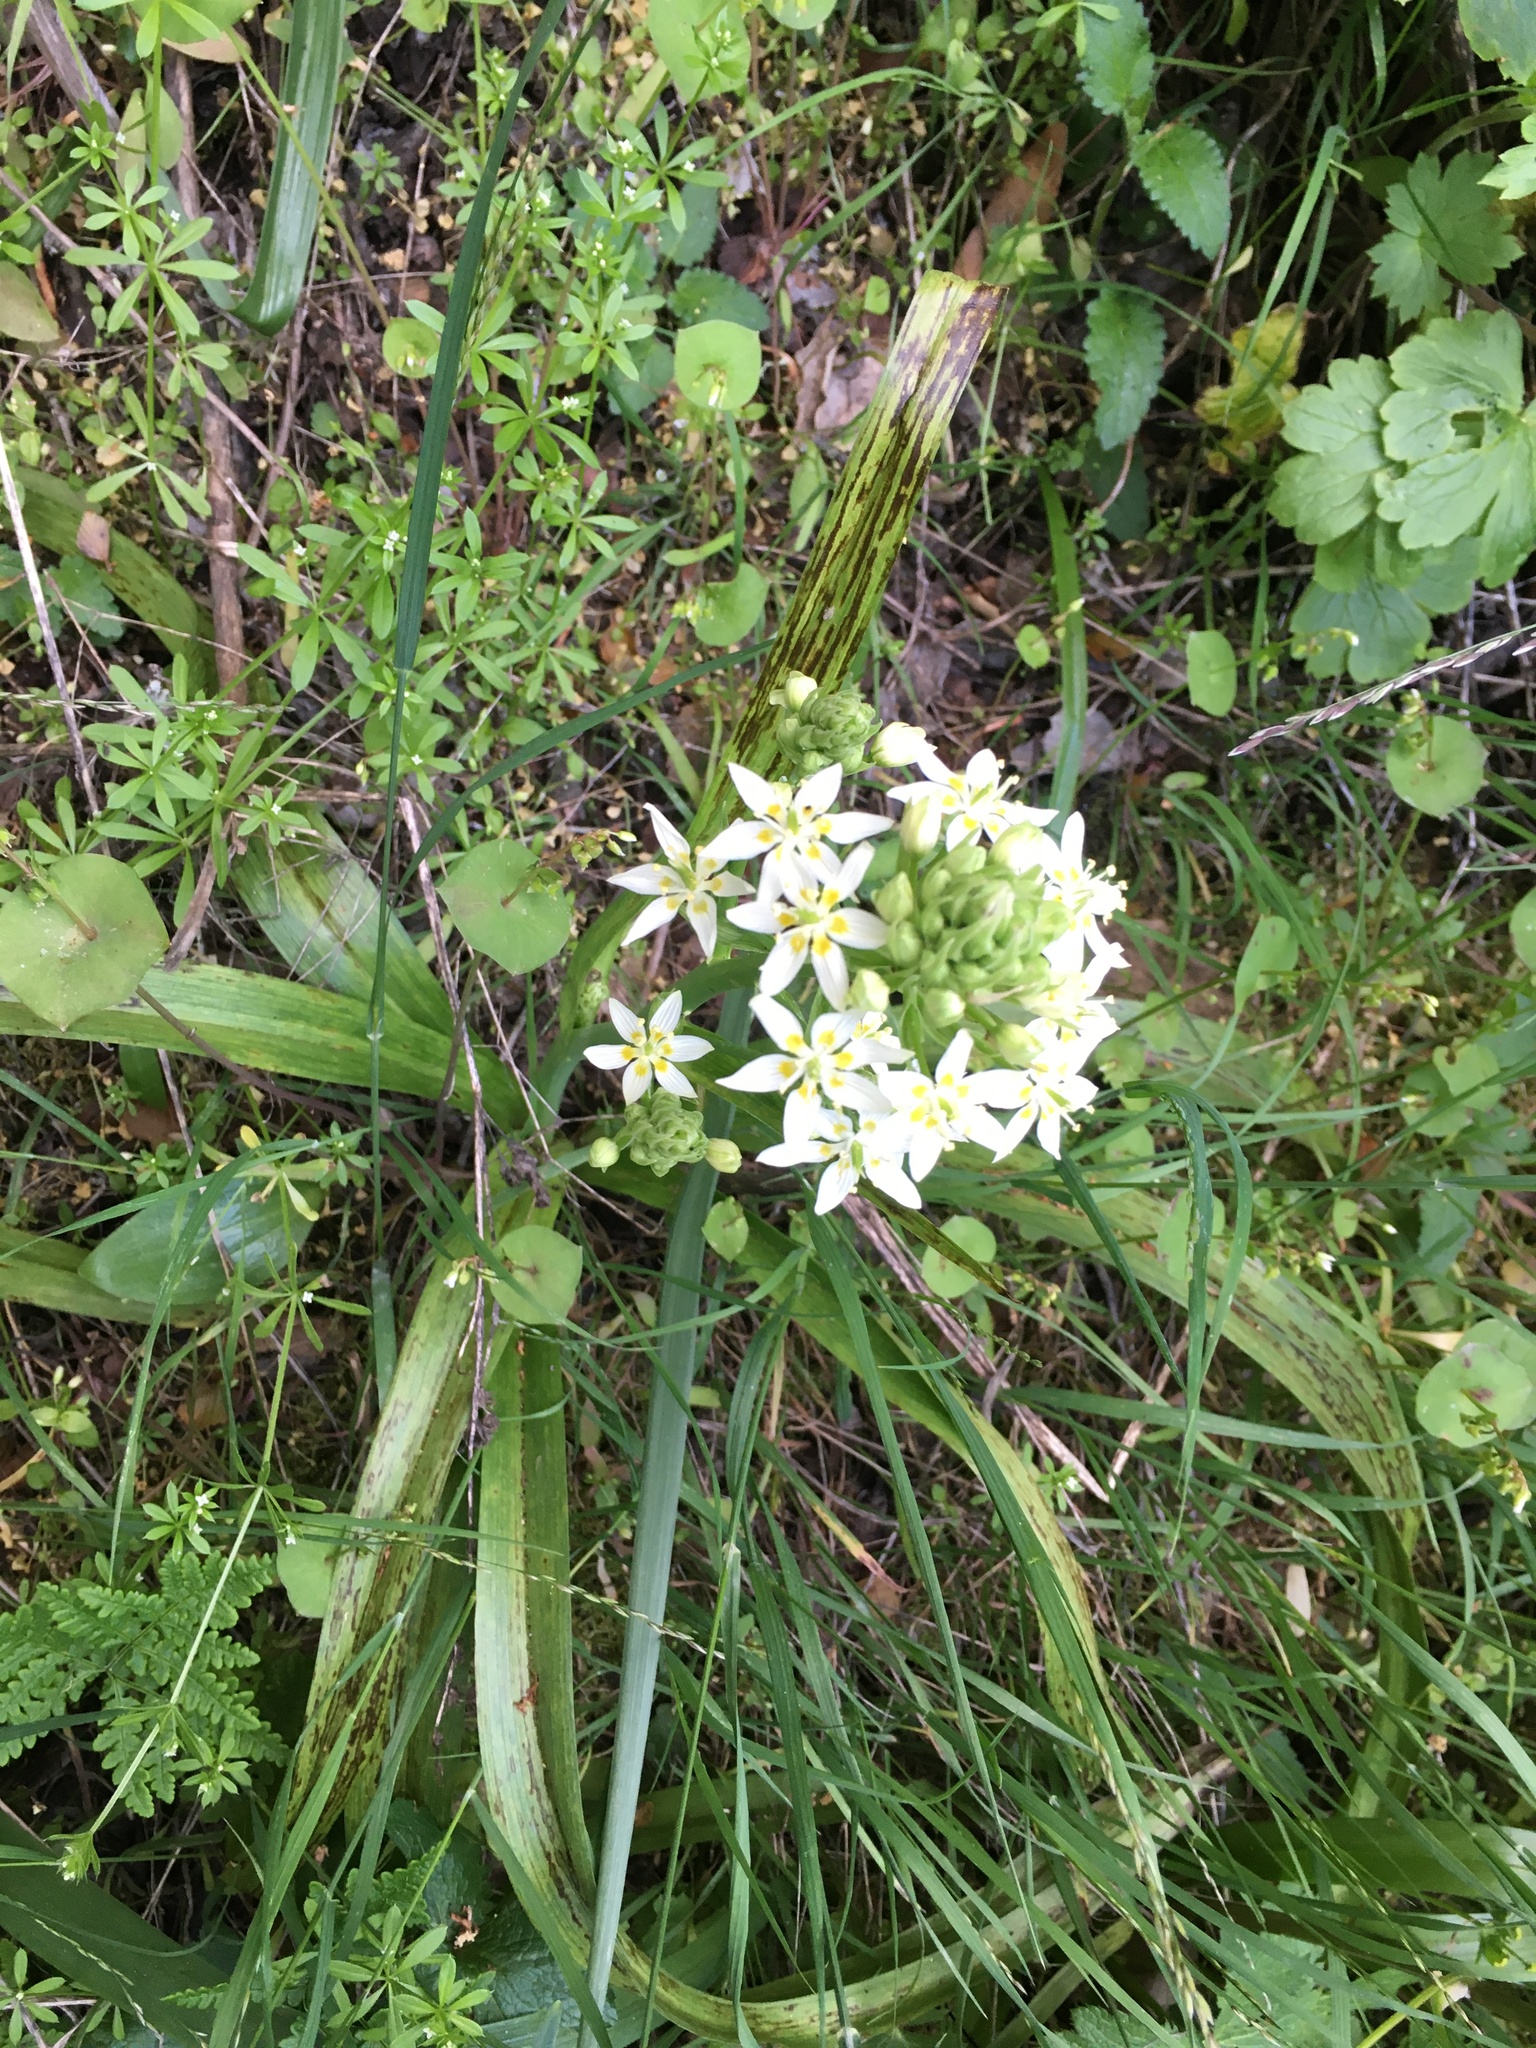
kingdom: Plantae
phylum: Tracheophyta
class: Liliopsida
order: Liliales
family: Melanthiaceae
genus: Toxicoscordion
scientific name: Toxicoscordion fremontii
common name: Fremont's death camas
